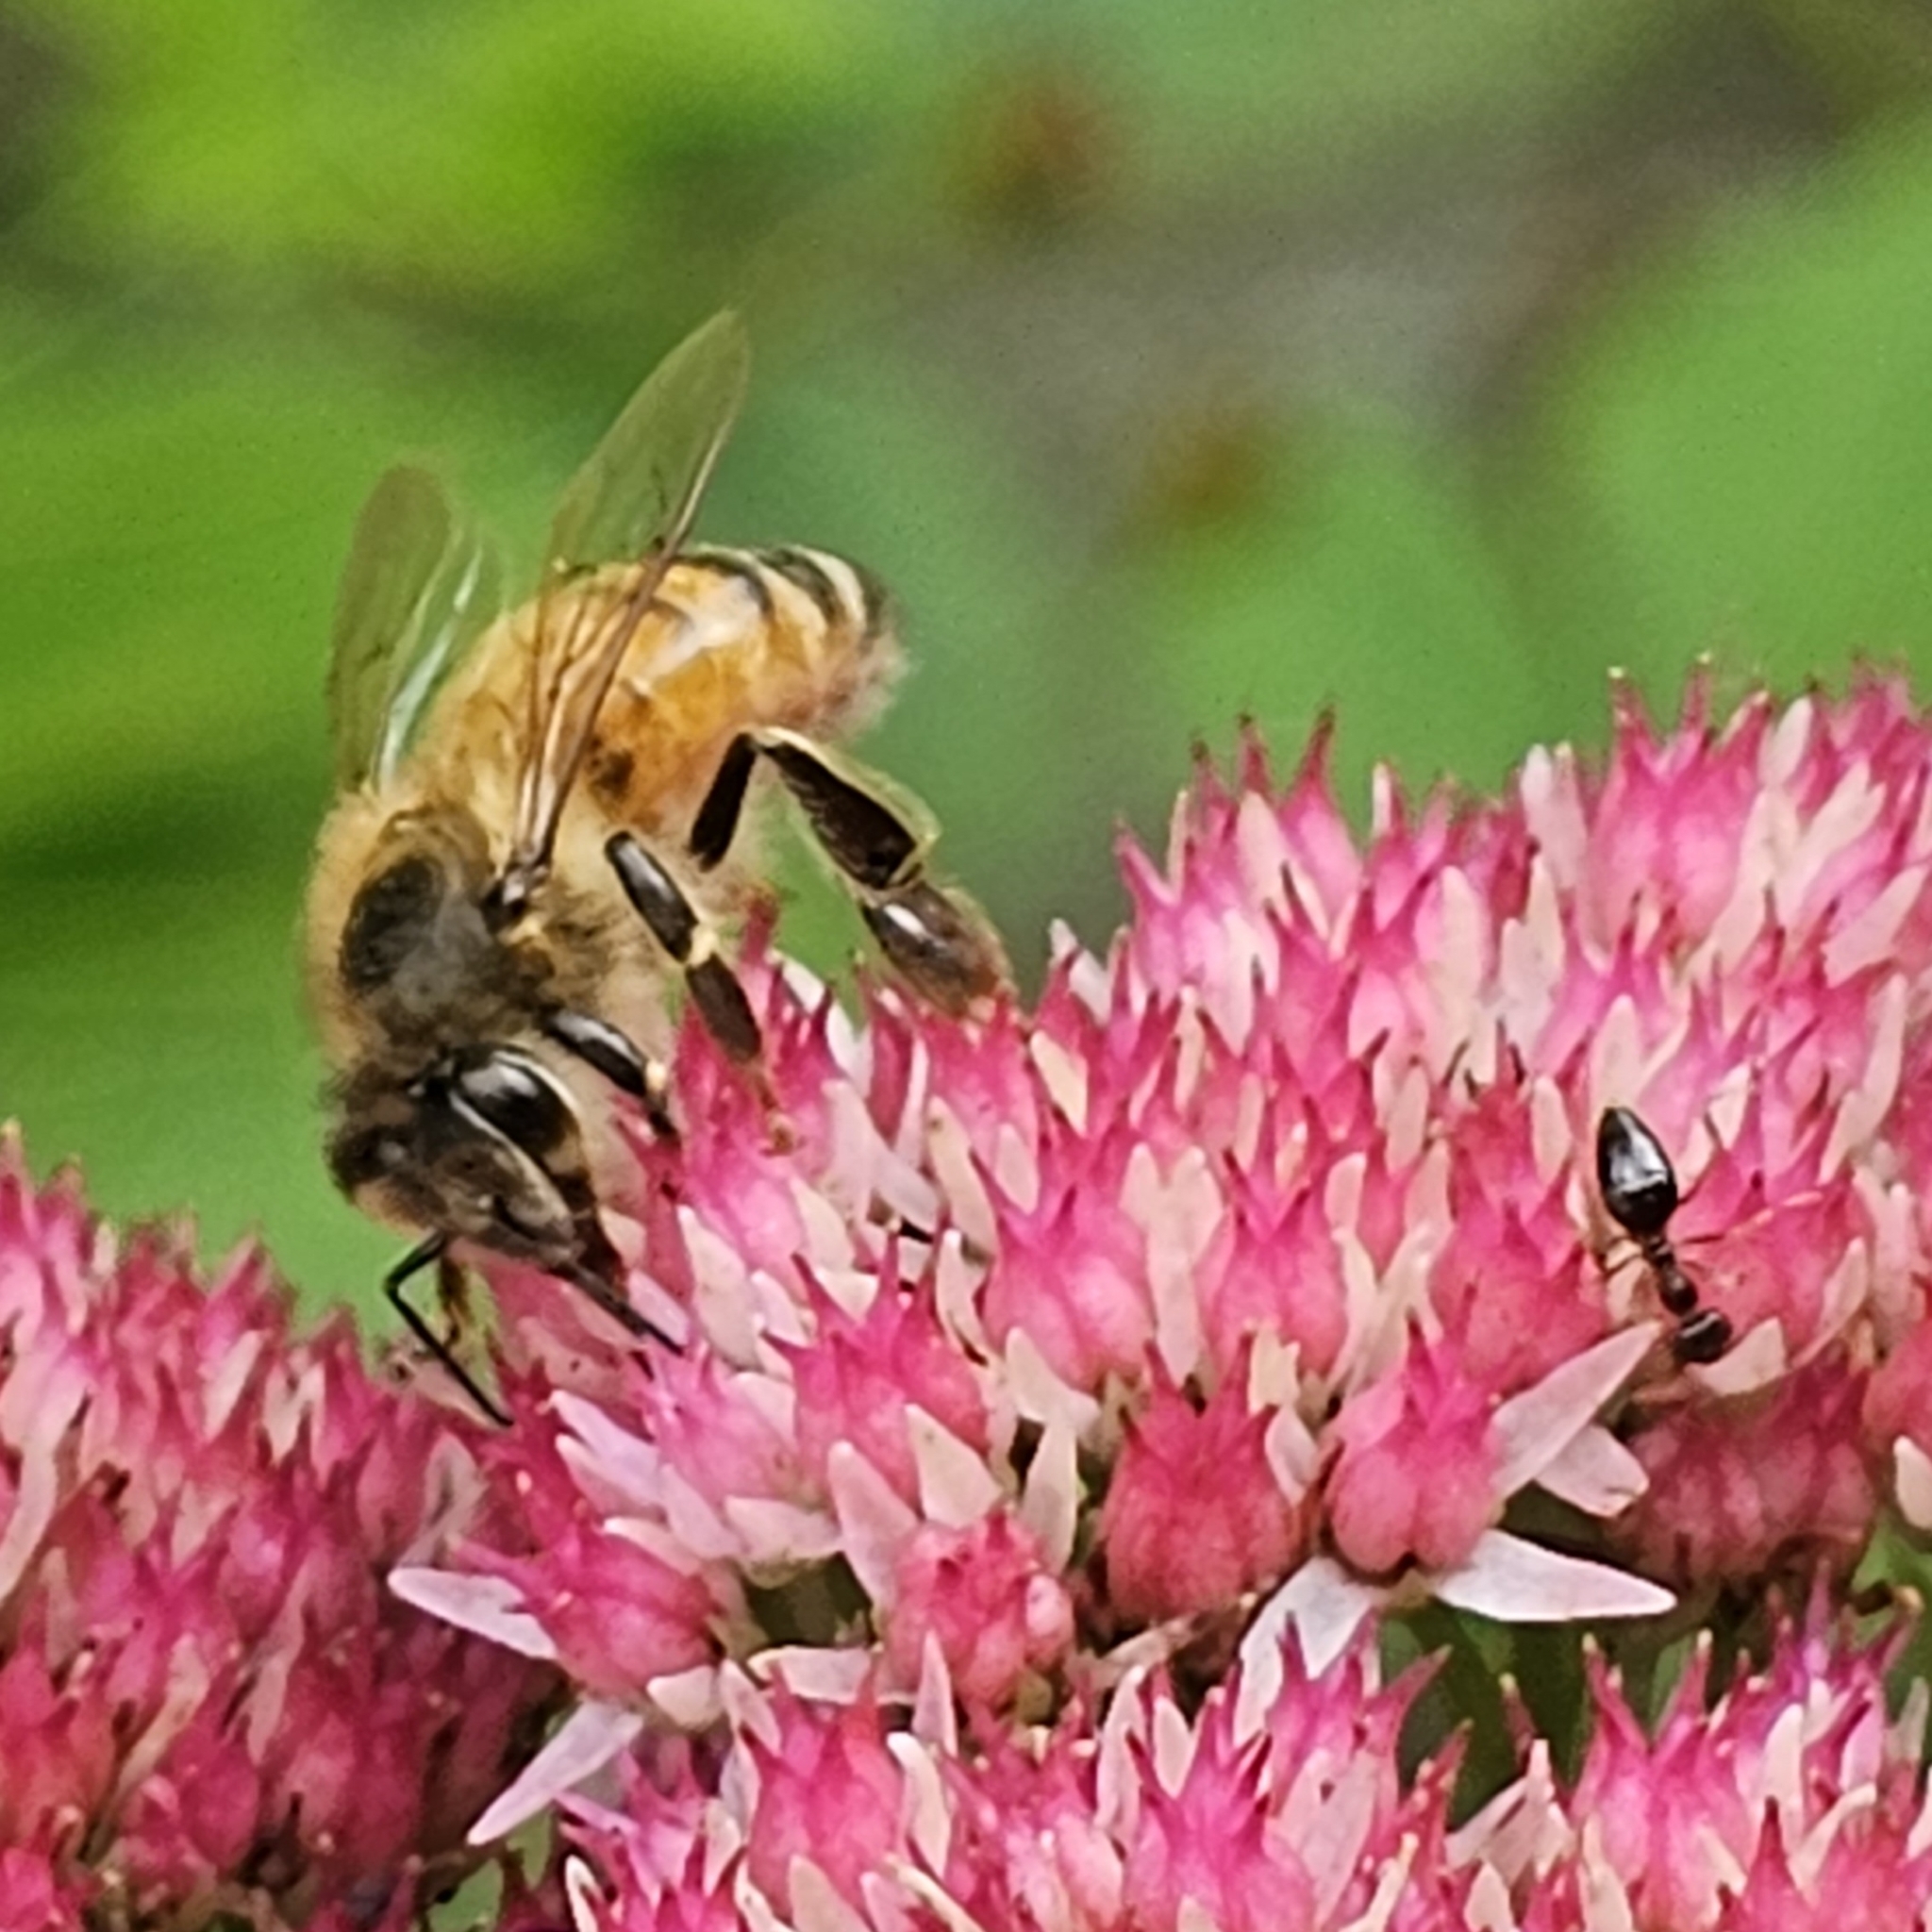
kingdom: Animalia
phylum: Arthropoda
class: Insecta
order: Hymenoptera
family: Apidae
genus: Apis
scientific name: Apis mellifera
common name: Honey bee
